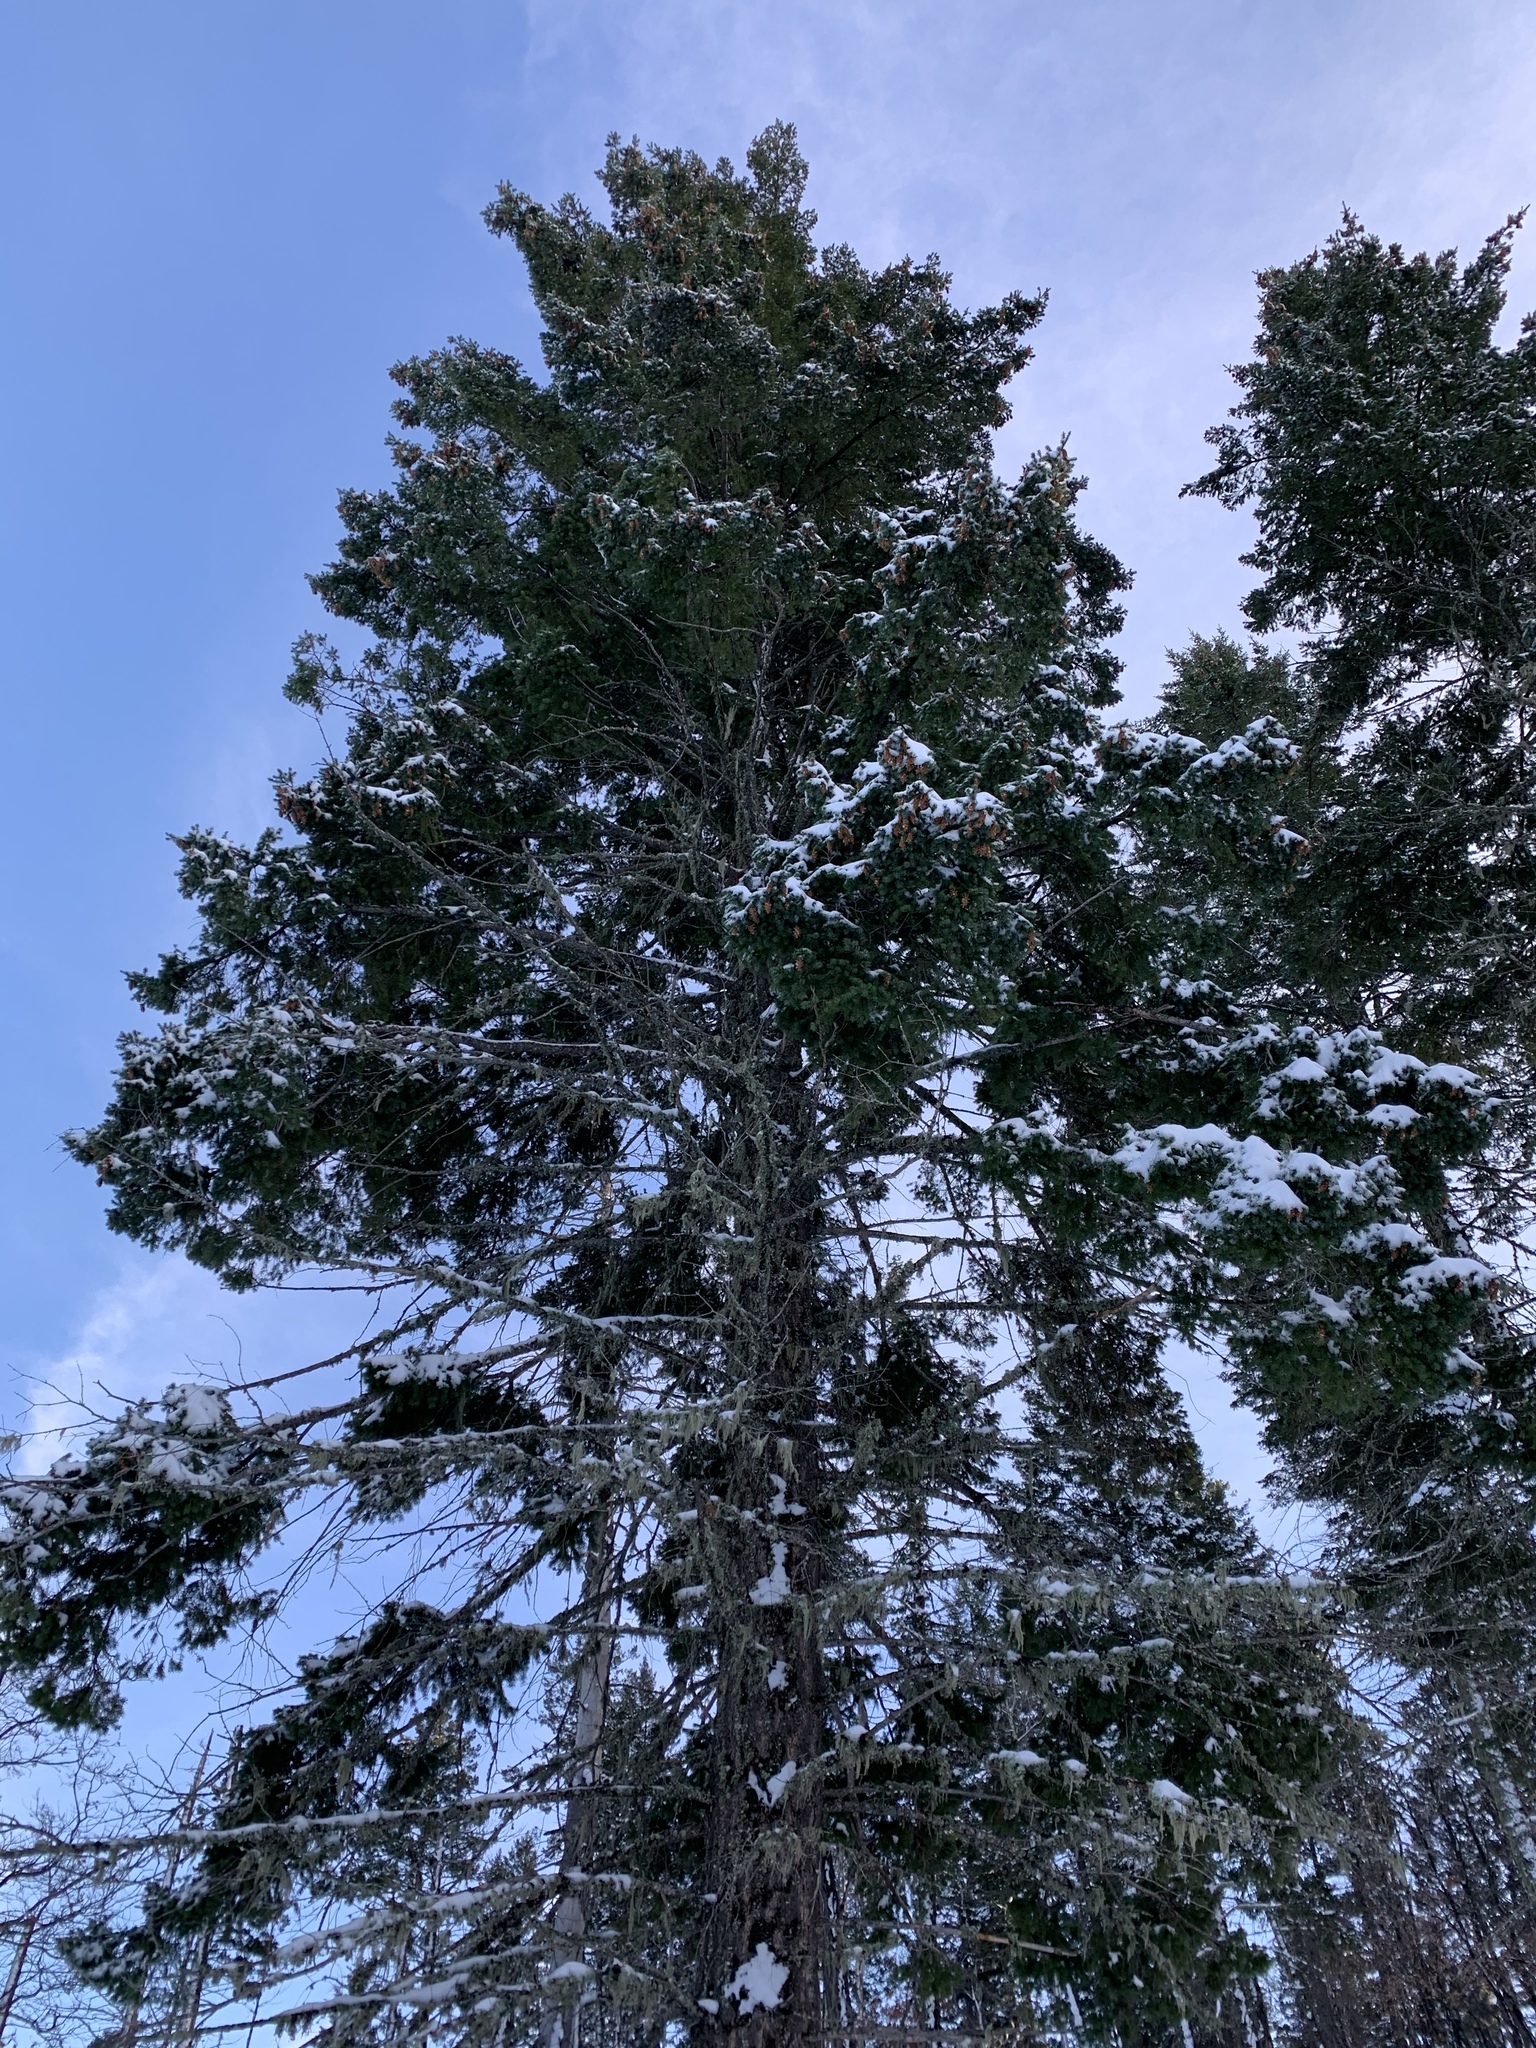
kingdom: Plantae
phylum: Tracheophyta
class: Pinopsida
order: Pinales
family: Pinaceae
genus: Pseudotsuga
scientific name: Pseudotsuga menziesii
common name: Douglas fir
